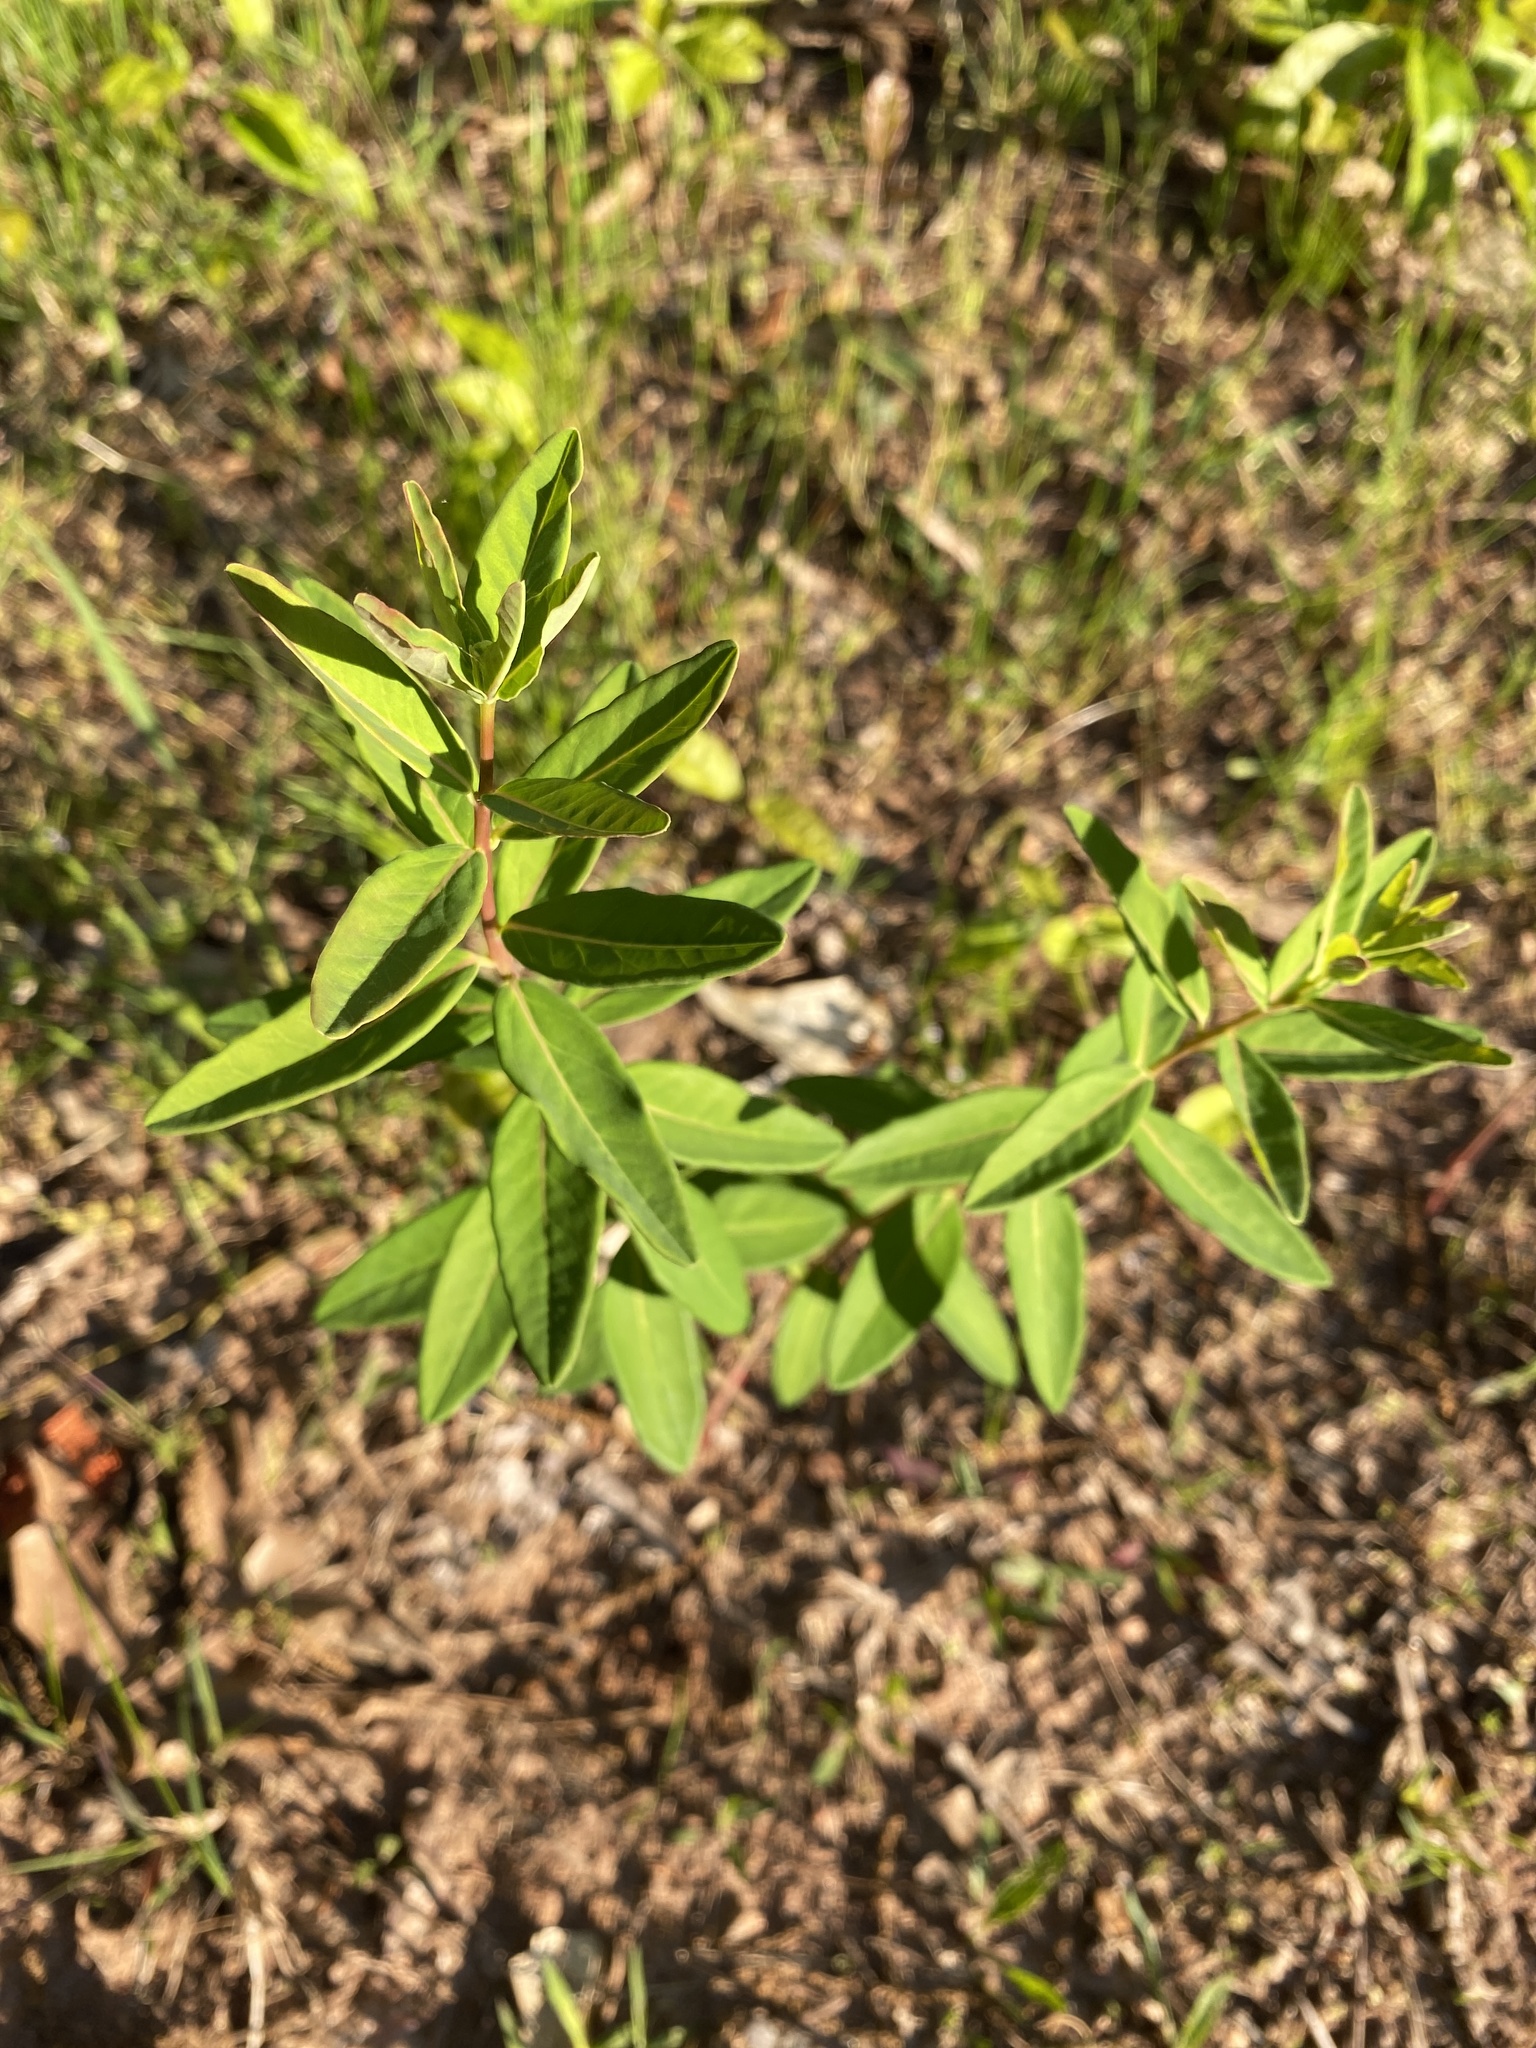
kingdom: Plantae
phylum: Tracheophyta
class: Magnoliopsida
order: Malpighiales
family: Euphorbiaceae
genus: Euphorbia
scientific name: Euphorbia corollata
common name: Flowering spurge
